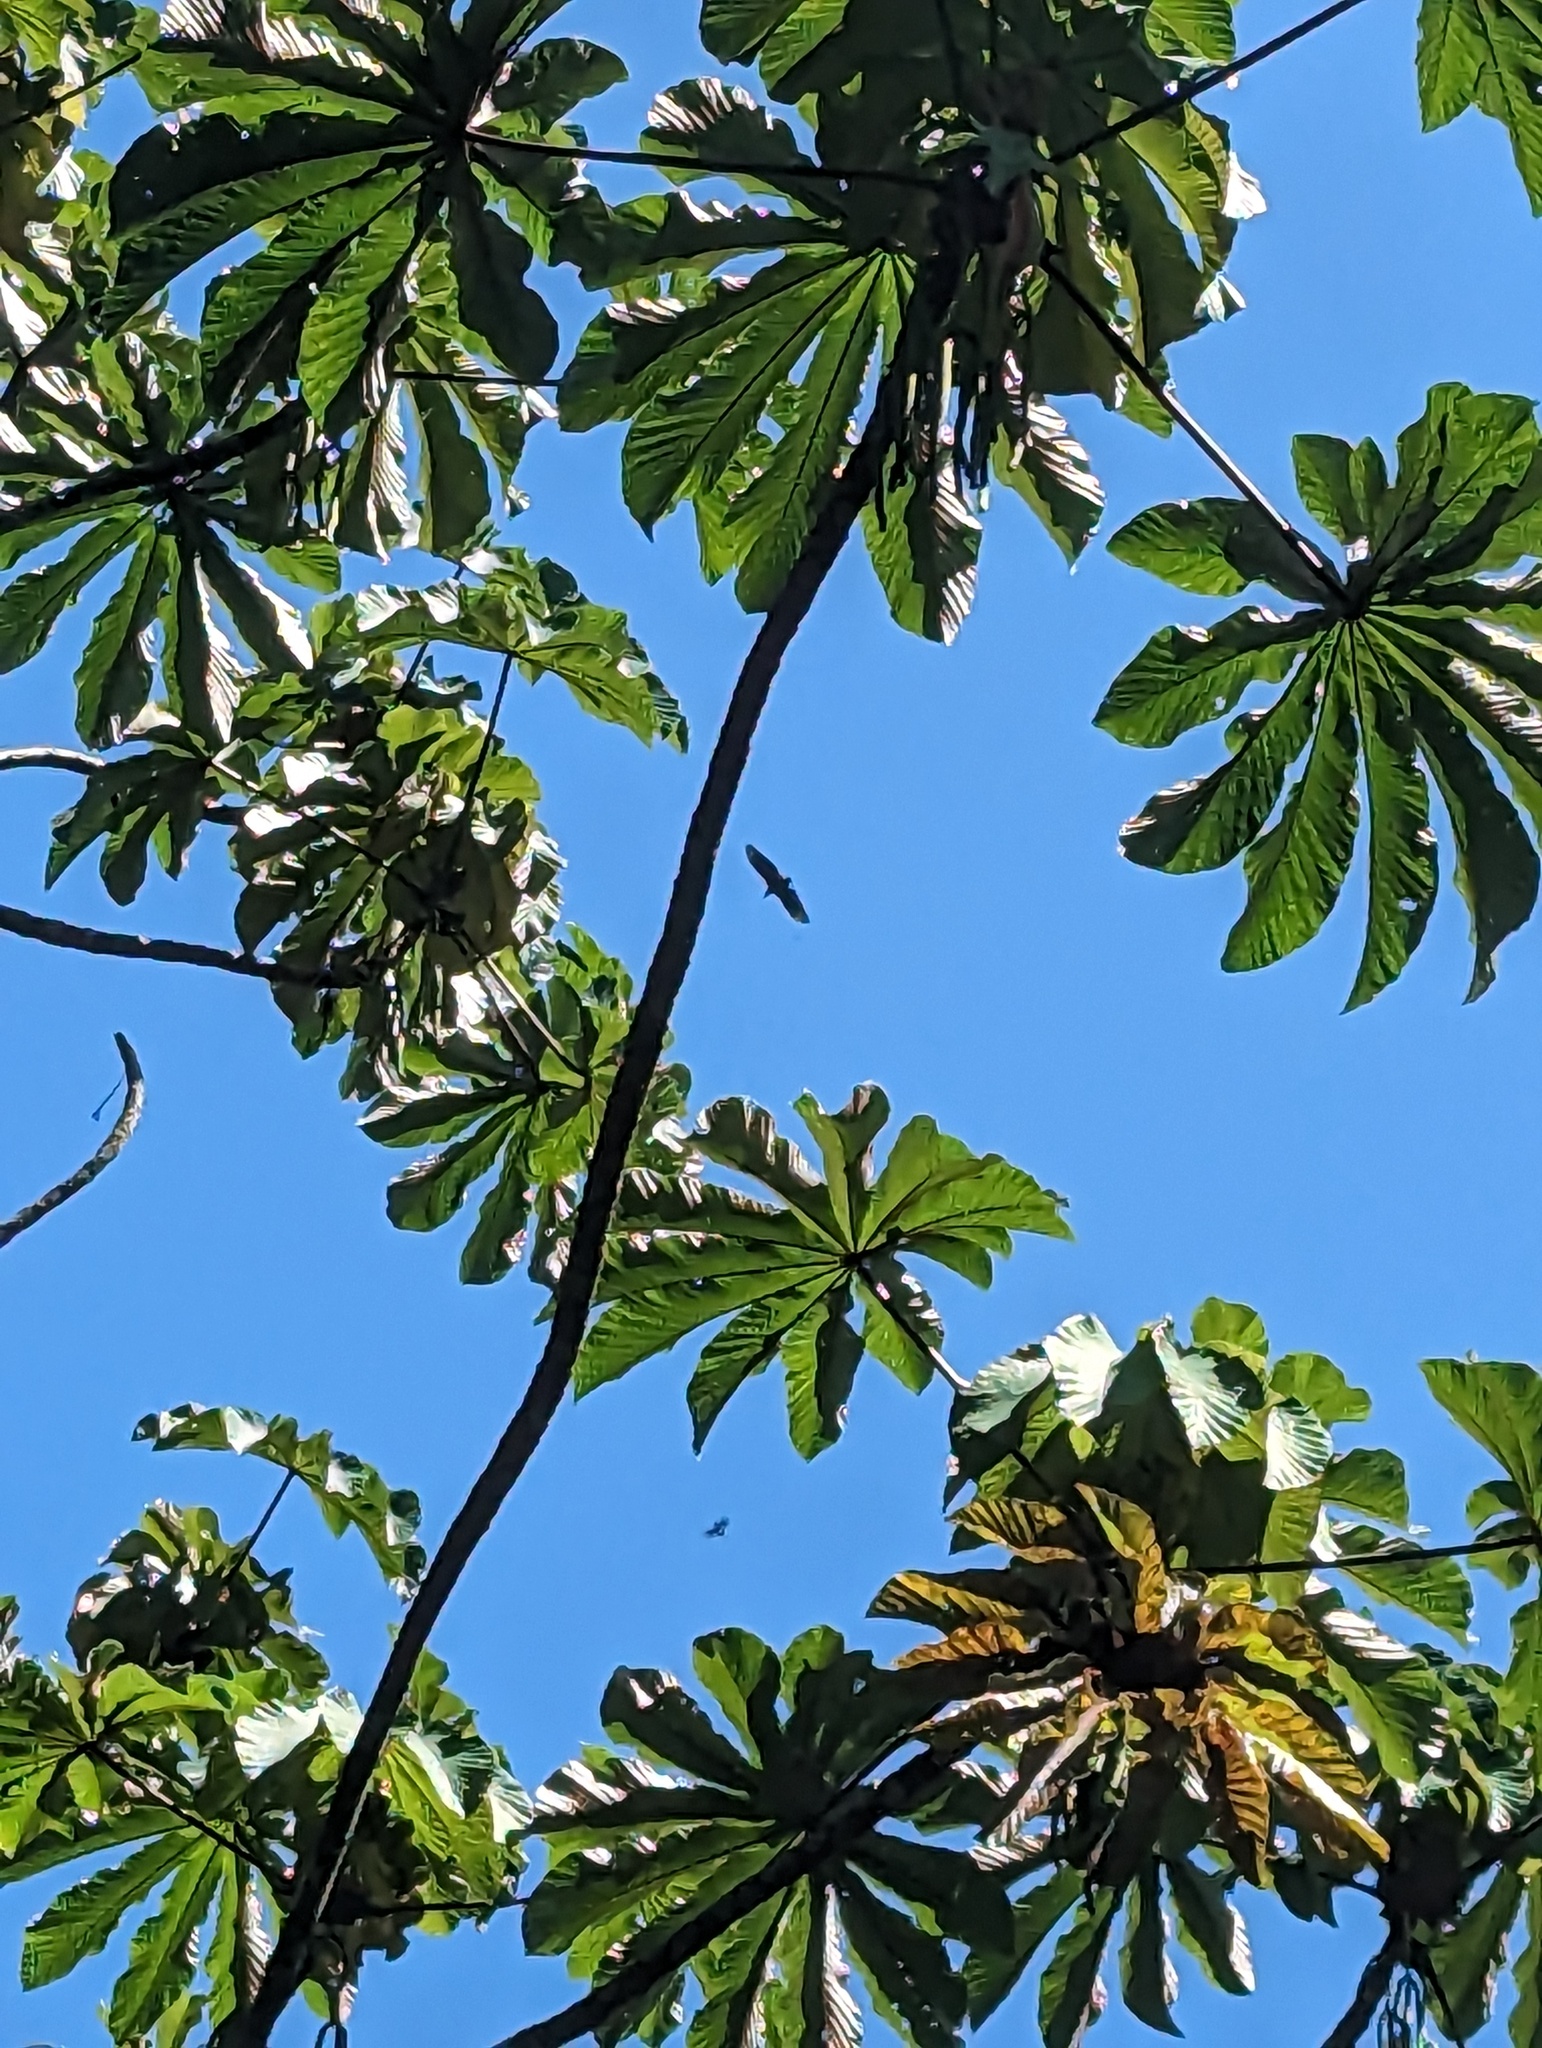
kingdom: Animalia
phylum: Chordata
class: Aves
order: Accipitriformes
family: Cathartidae
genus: Coragyps
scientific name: Coragyps atratus
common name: Black vulture
